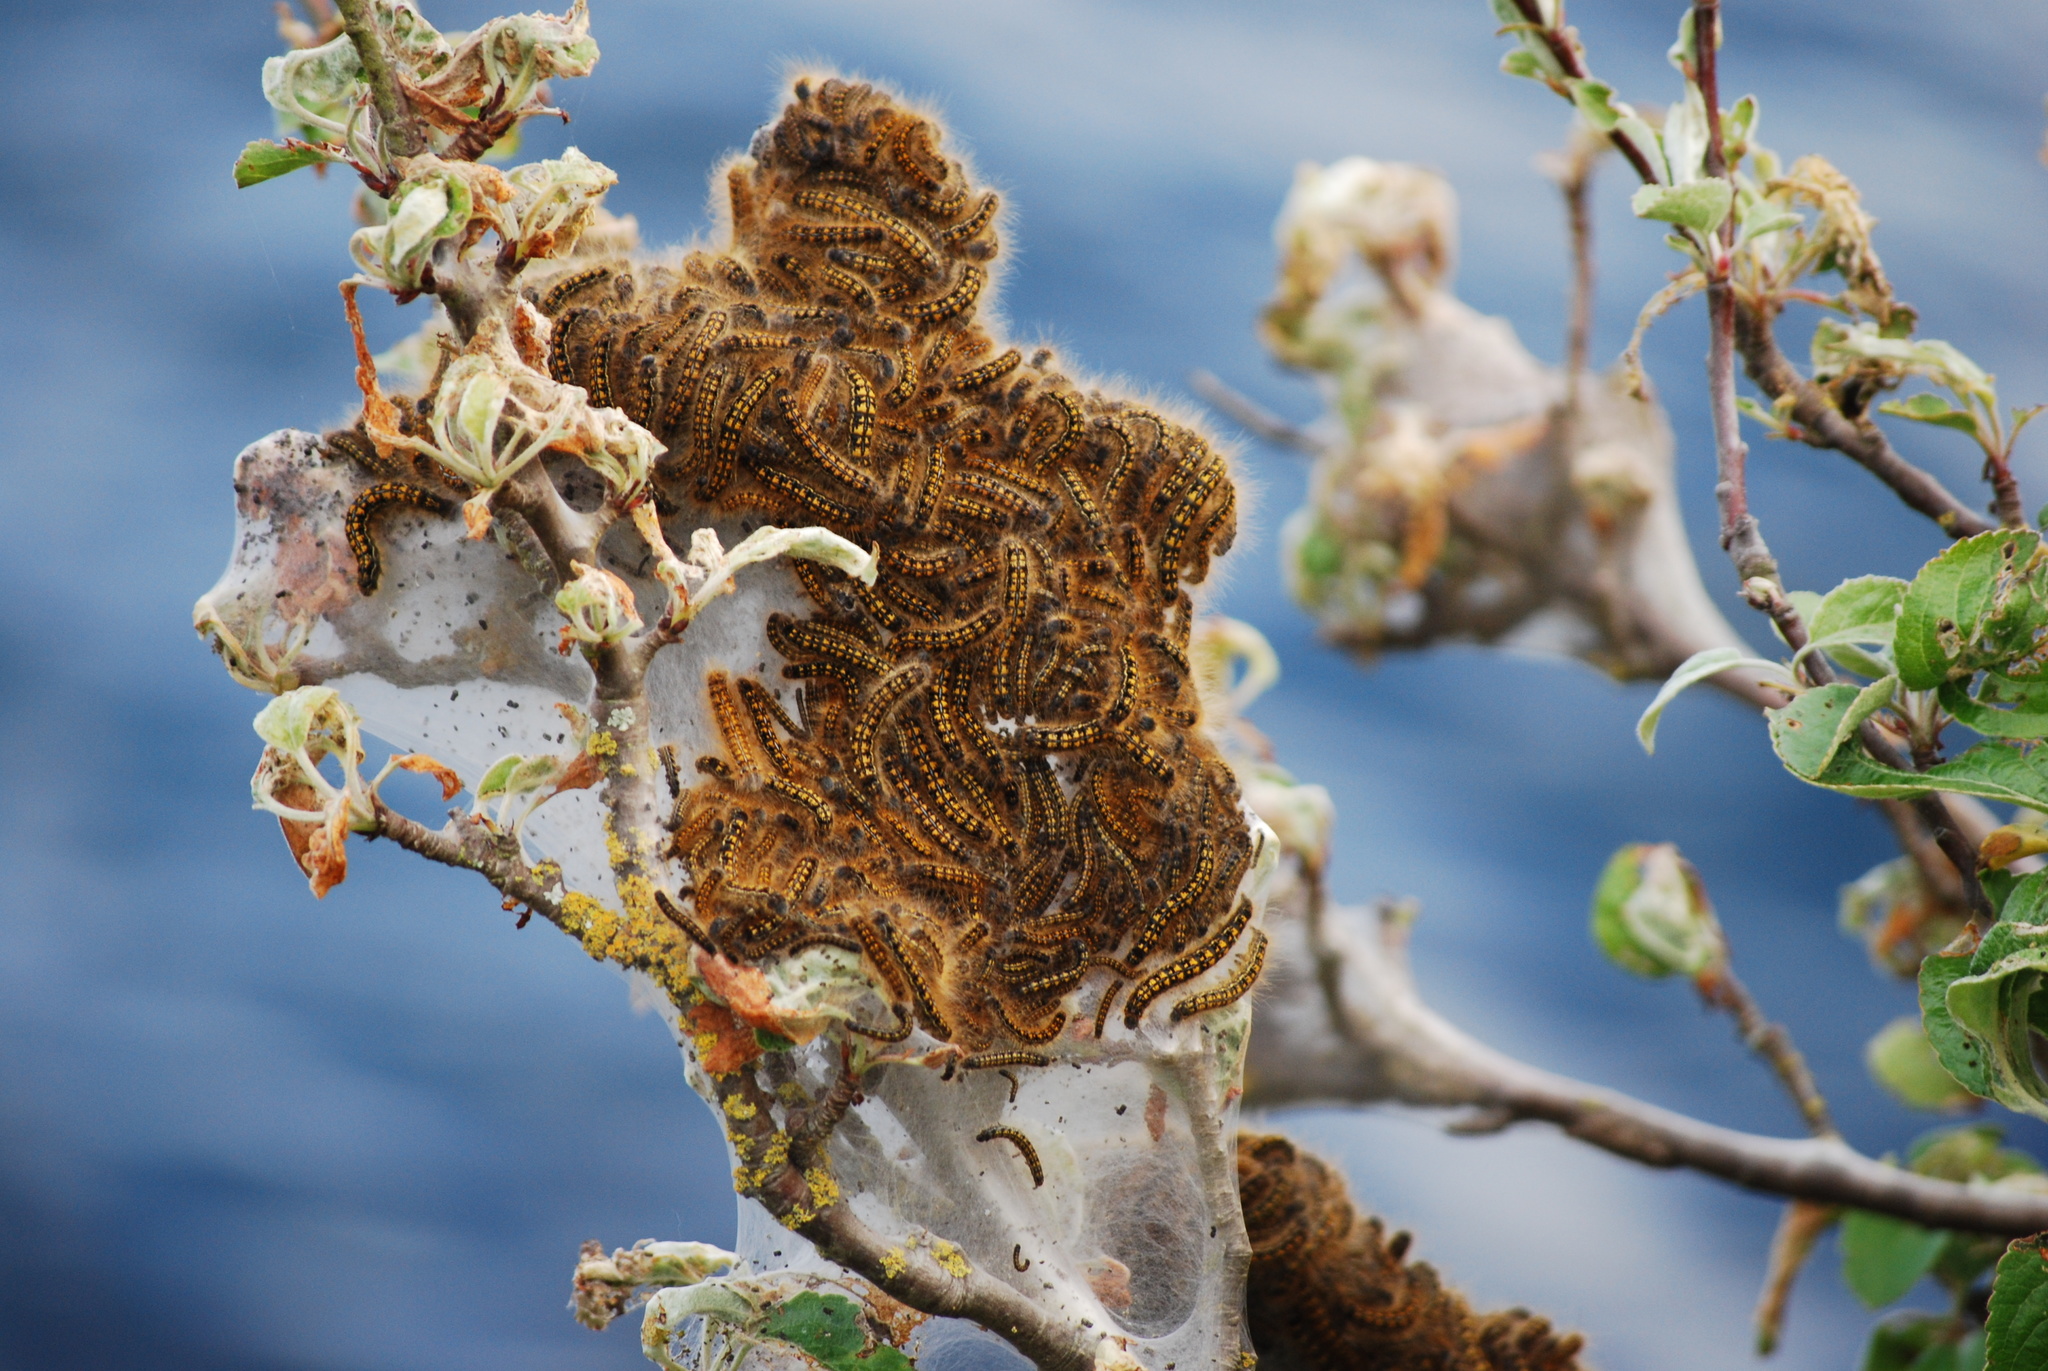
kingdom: Animalia
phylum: Arthropoda
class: Insecta
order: Lepidoptera
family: Lasiocampidae
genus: Malacosoma
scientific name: Malacosoma californica
